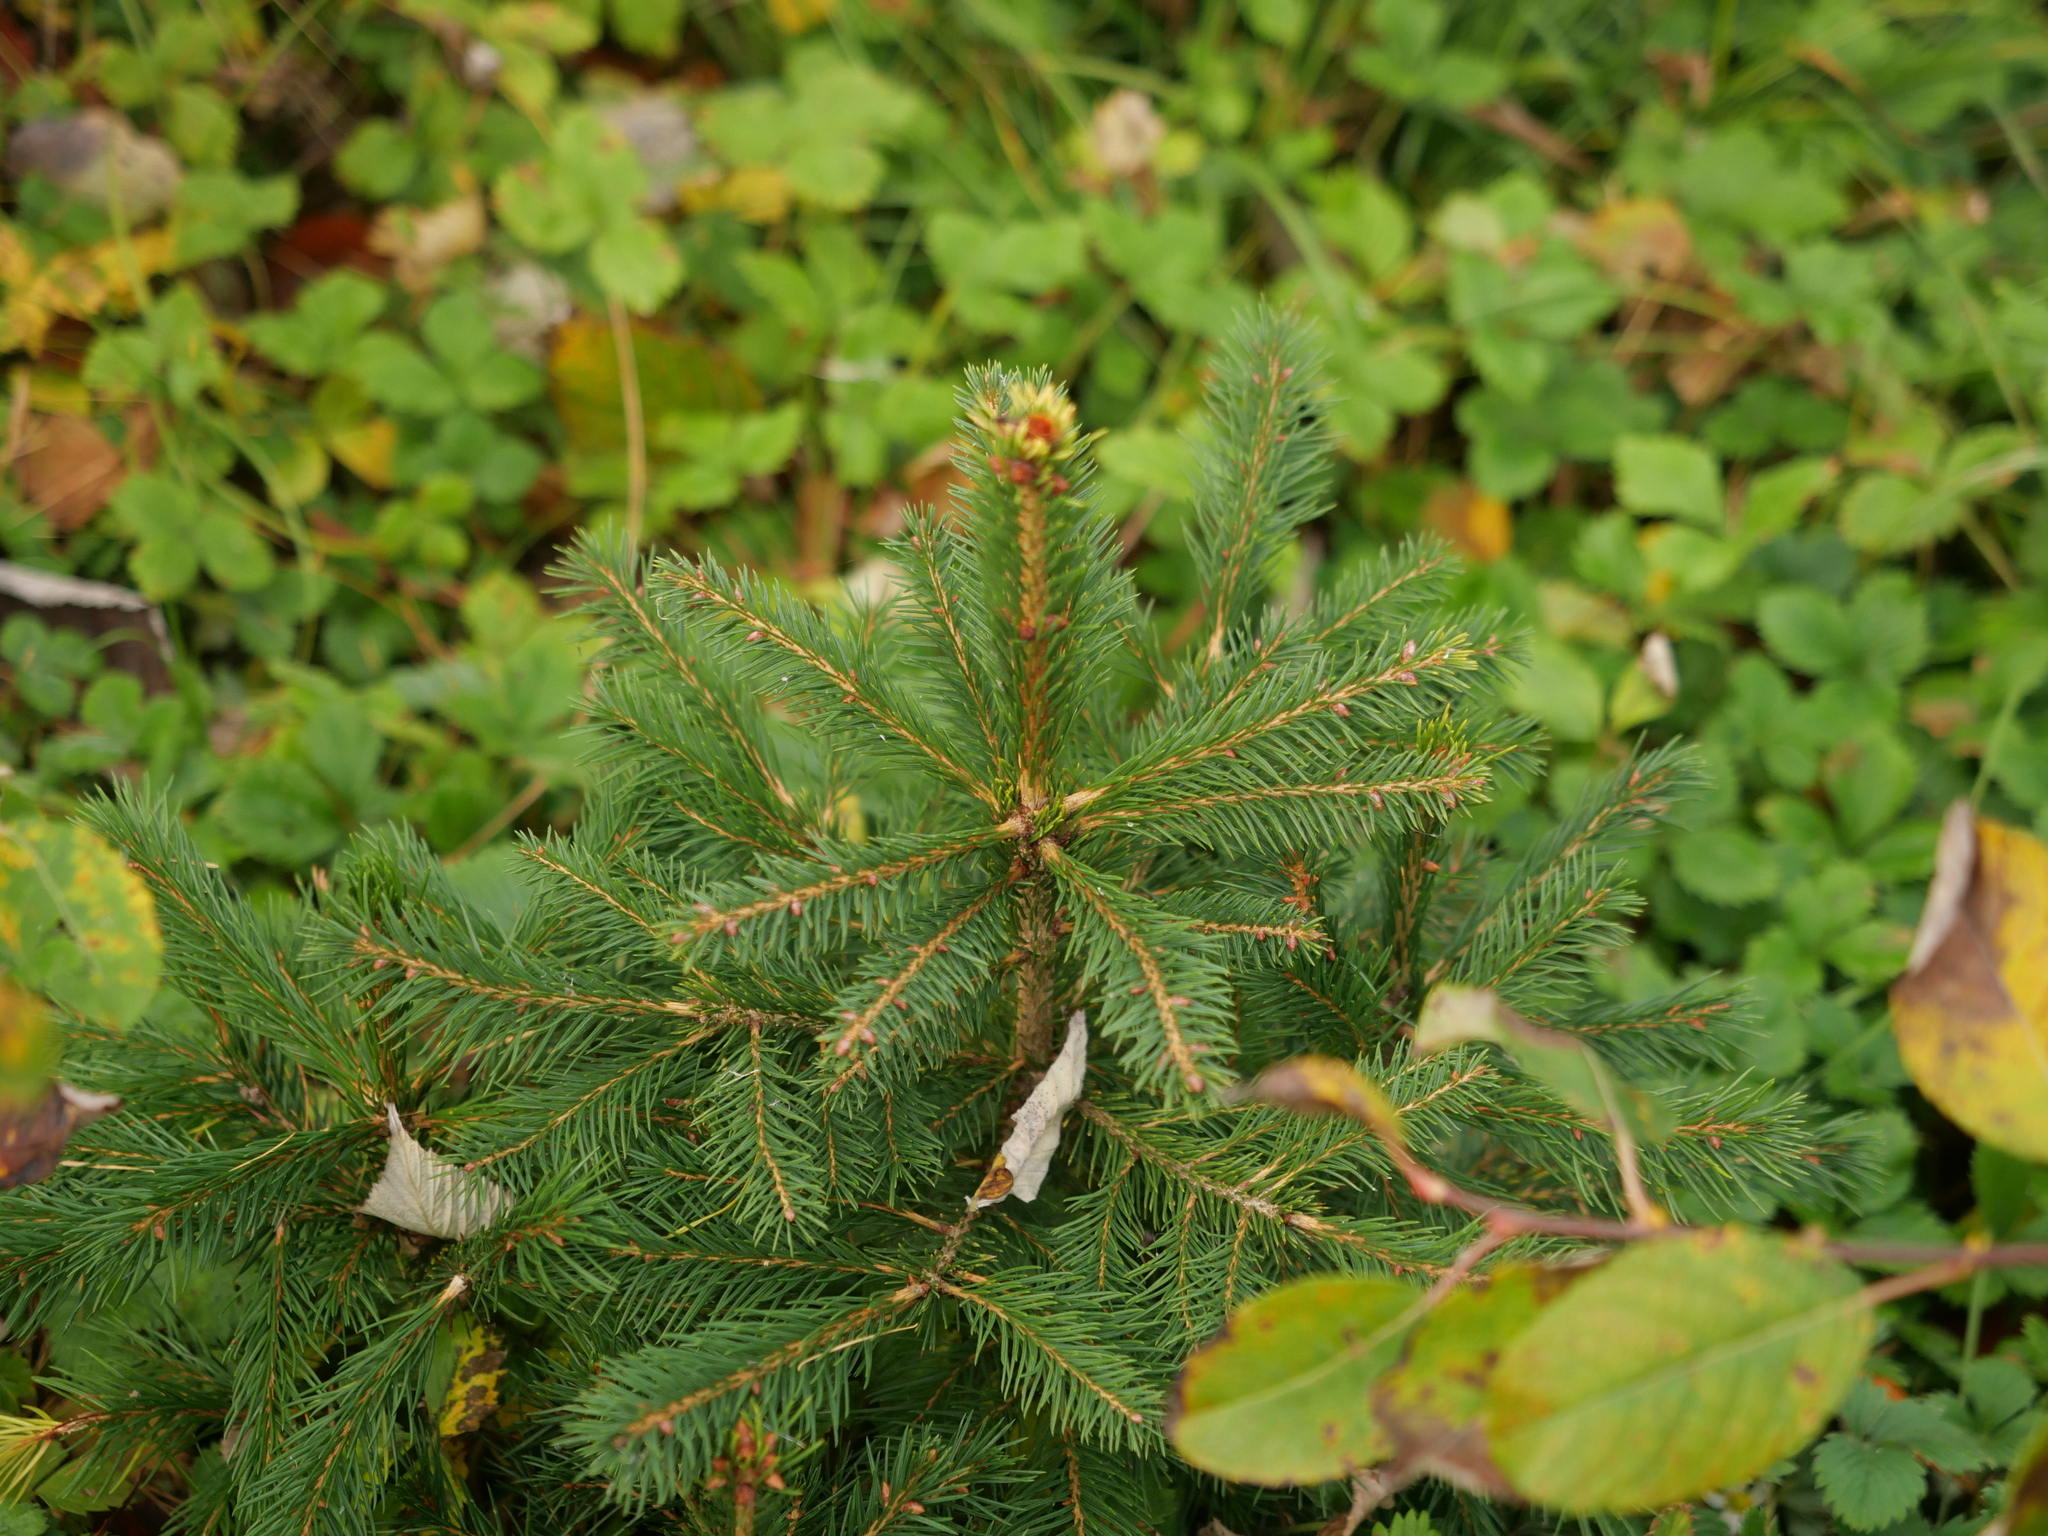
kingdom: Plantae
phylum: Tracheophyta
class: Pinopsida
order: Pinales
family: Pinaceae
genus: Picea
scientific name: Picea abies
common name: Norway spruce
